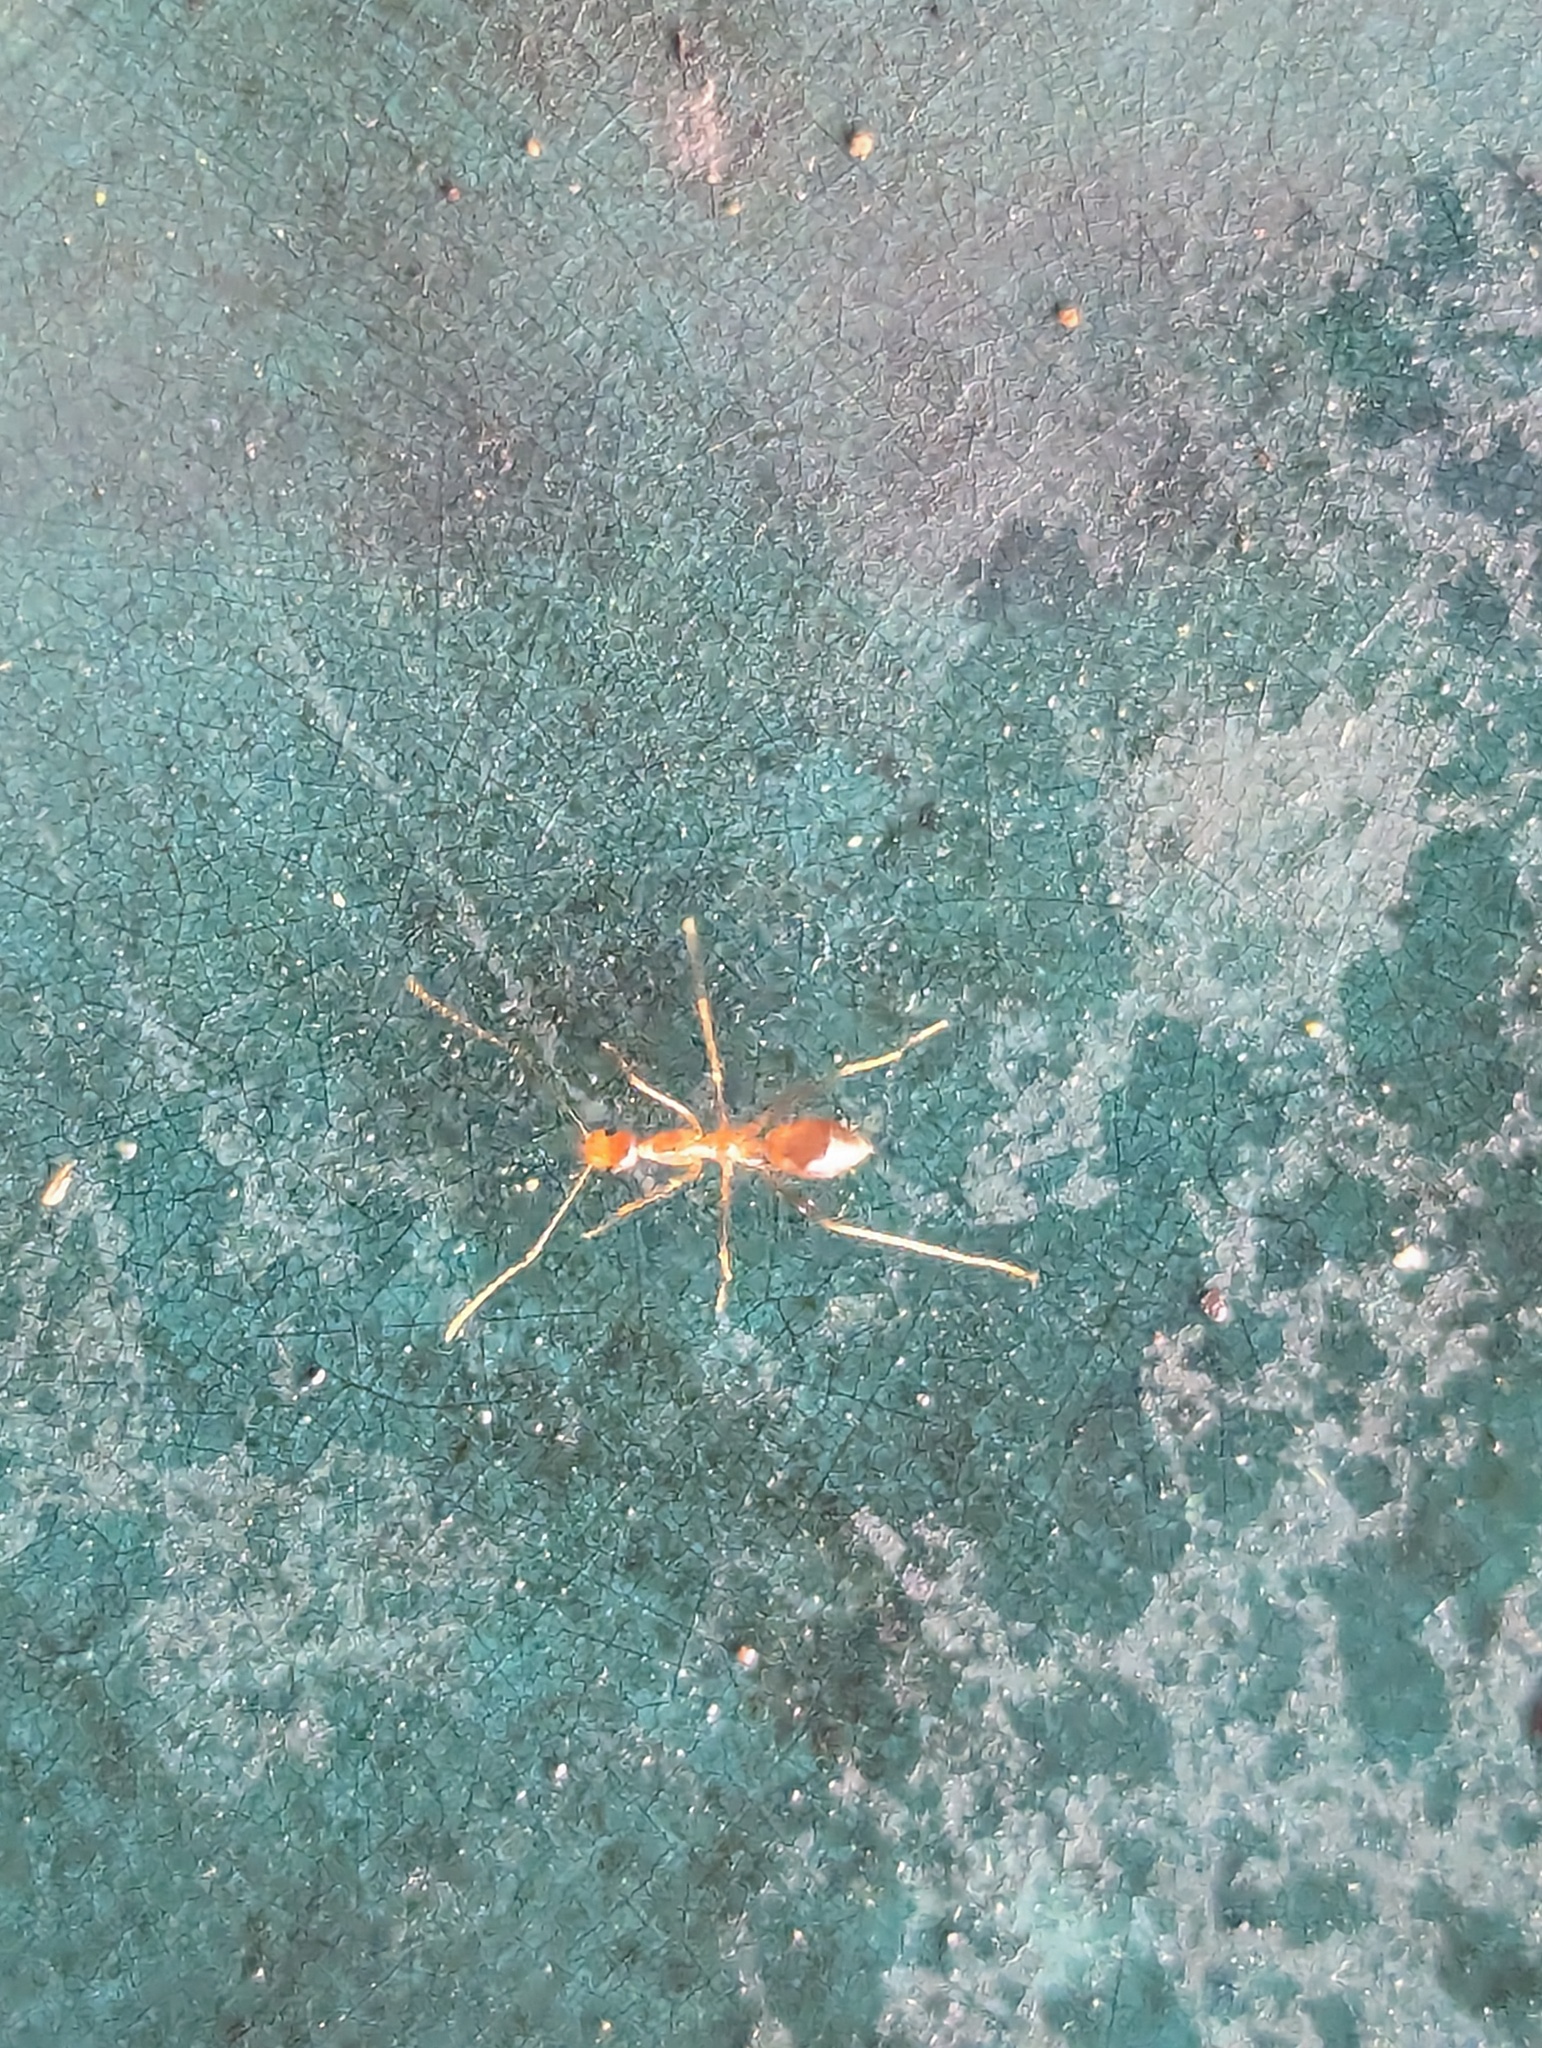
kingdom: Animalia
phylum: Arthropoda
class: Insecta
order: Hymenoptera
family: Formicidae
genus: Anoplolepis
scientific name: Anoplolepis gracilipes
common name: Ant
